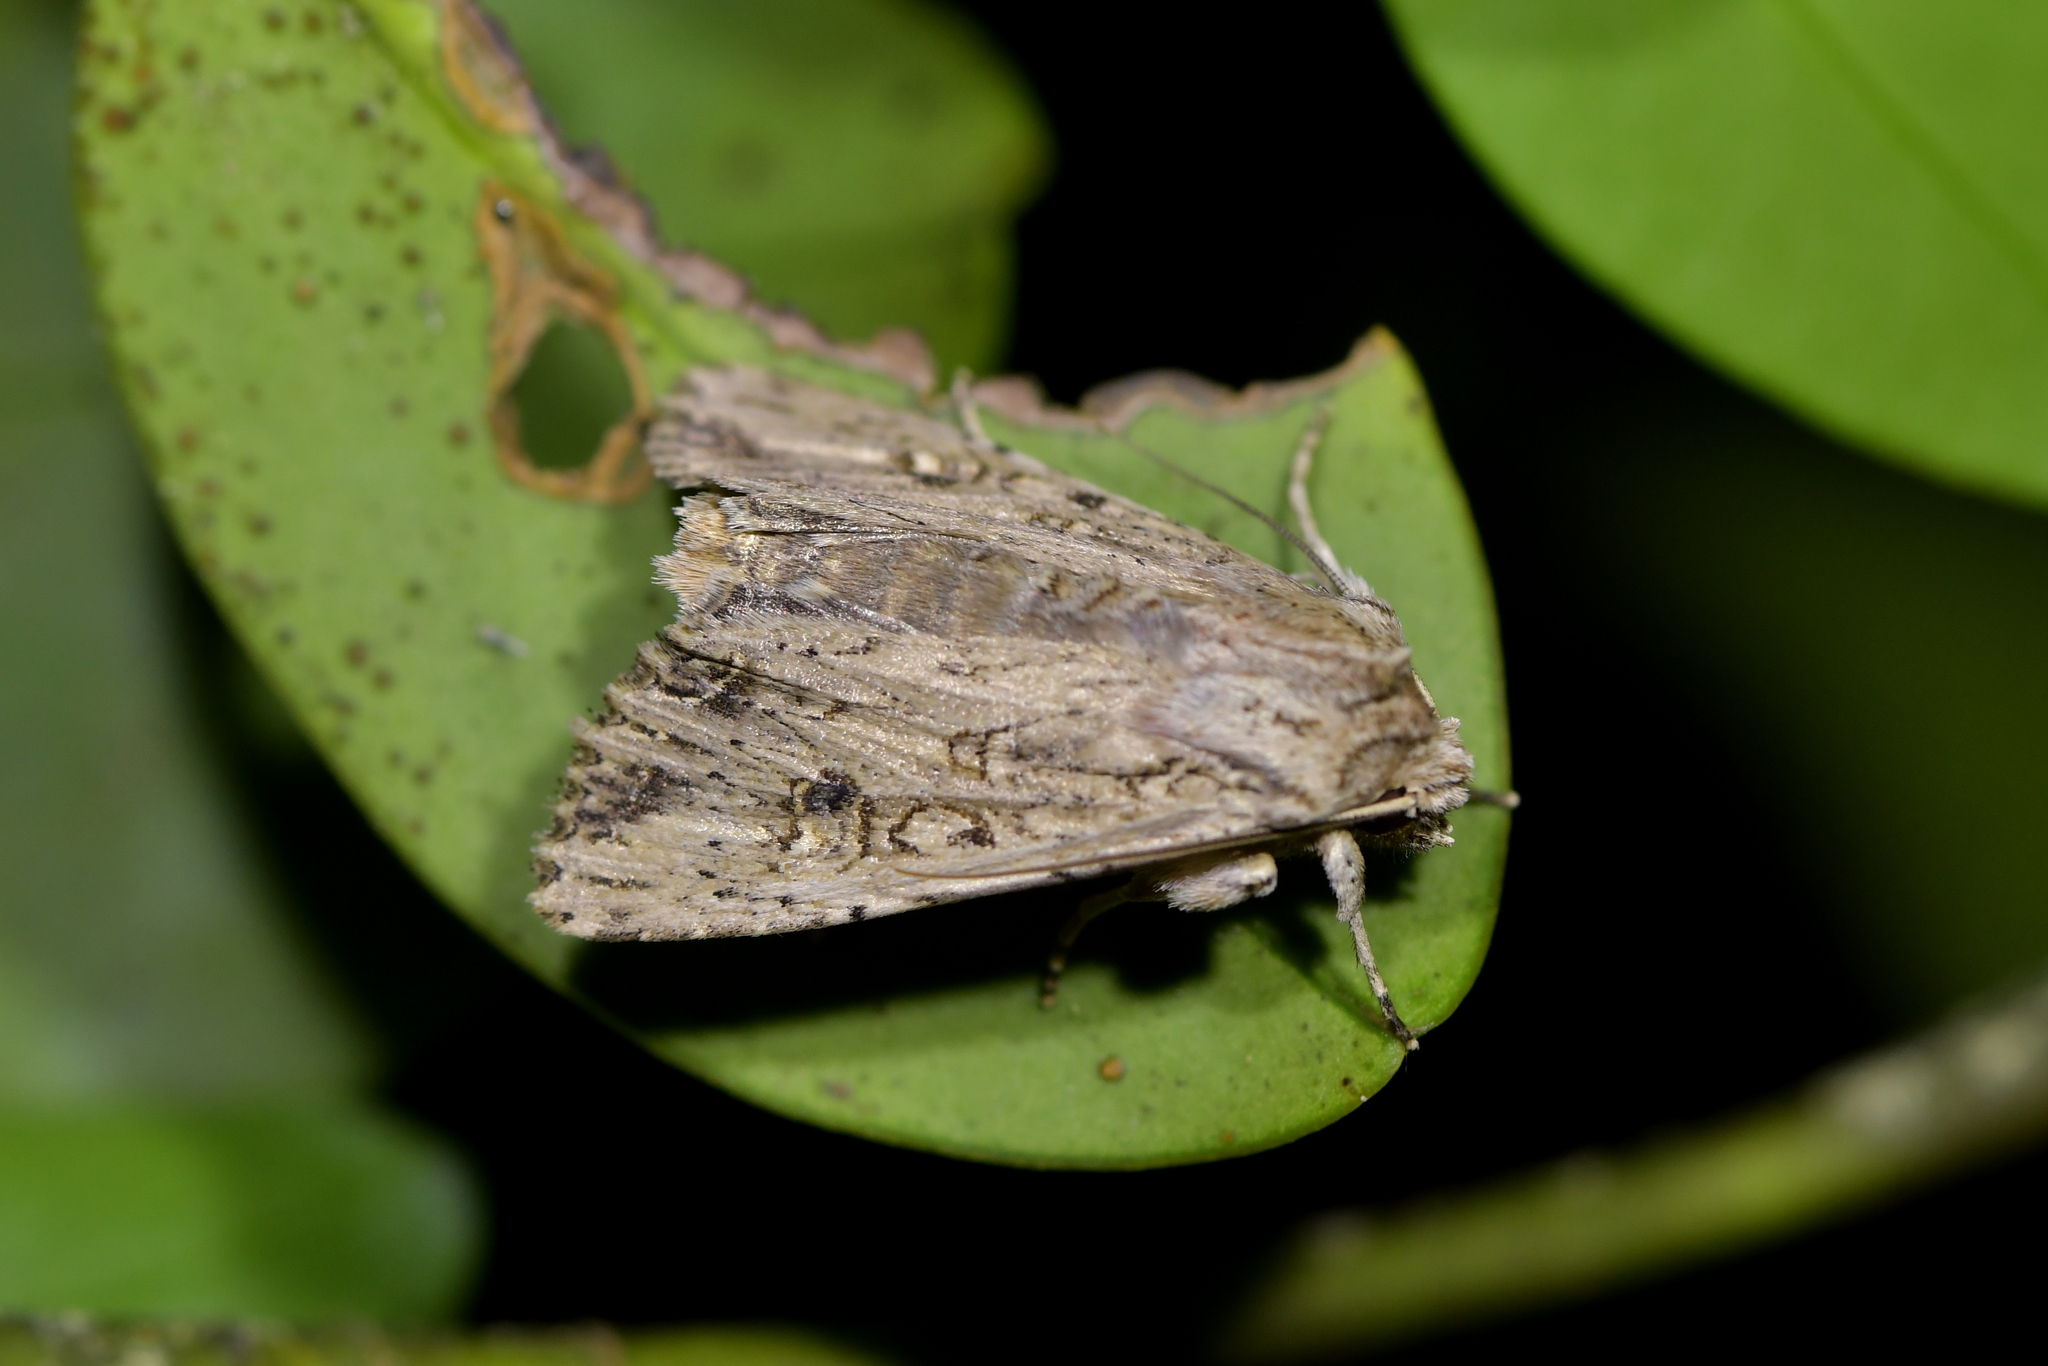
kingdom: Animalia
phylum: Arthropoda
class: Insecta
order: Lepidoptera
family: Noctuidae
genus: Ichneutica
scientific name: Ichneutica lignana
